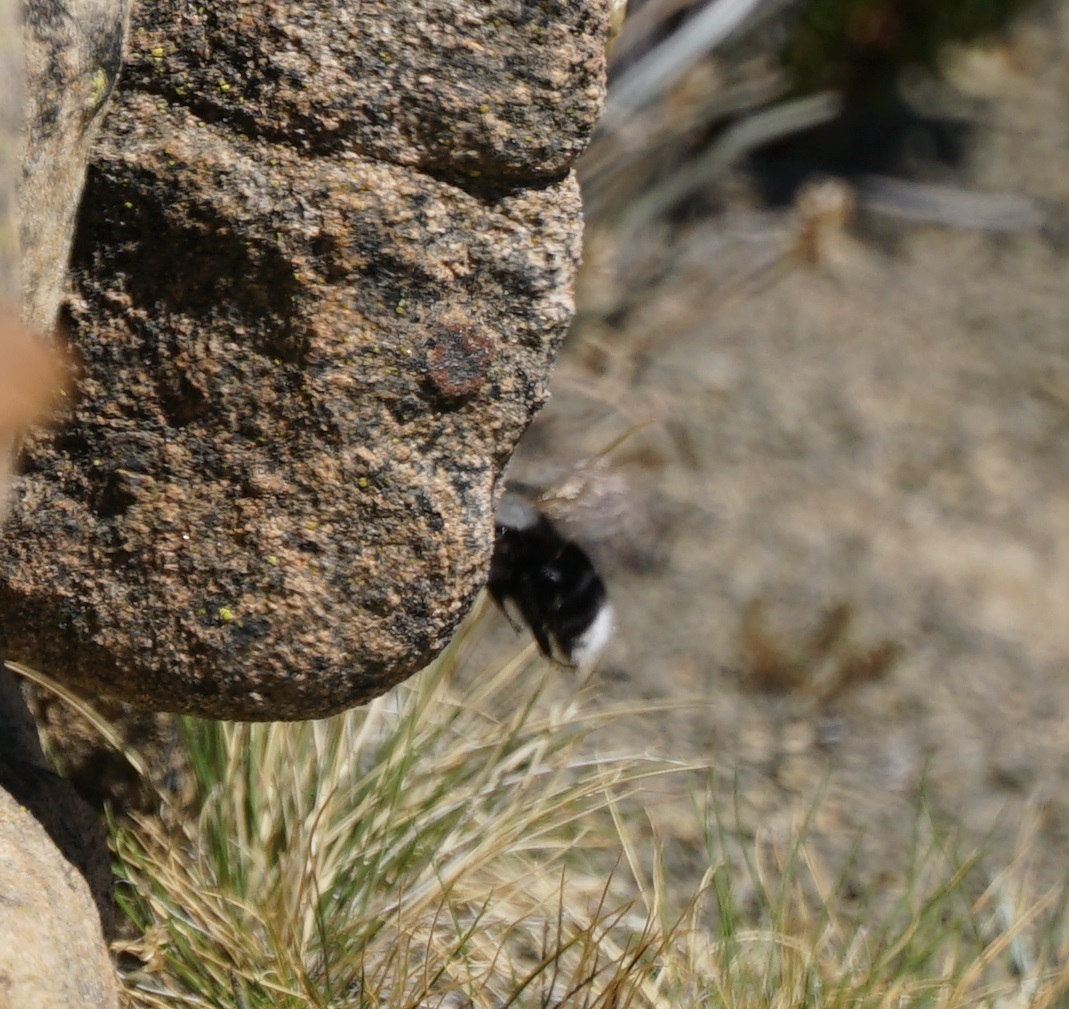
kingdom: Animalia
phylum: Arthropoda
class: Insecta
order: Hymenoptera
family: Apidae
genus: Bombus
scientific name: Bombus funebris
